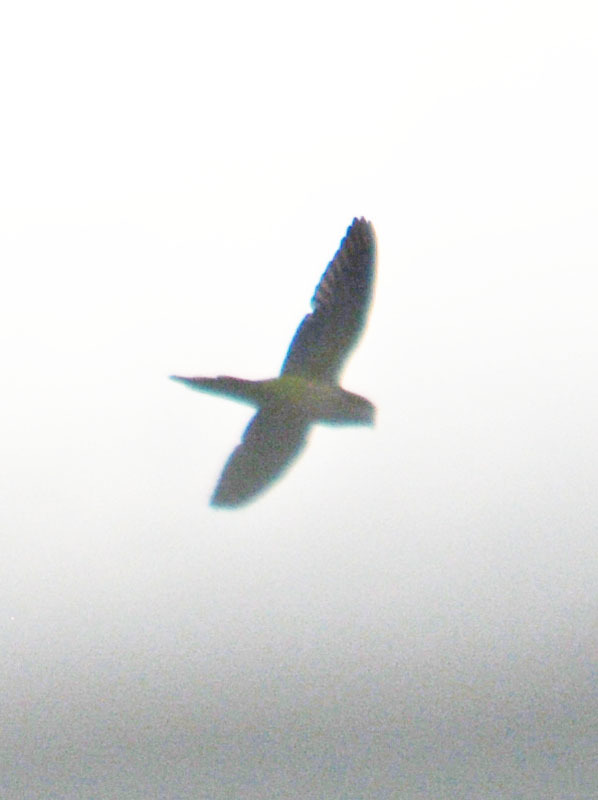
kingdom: Animalia
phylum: Chordata
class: Aves
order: Psittaciformes
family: Psittacidae
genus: Myiopsitta
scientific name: Myiopsitta monachus
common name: Monk parakeet
